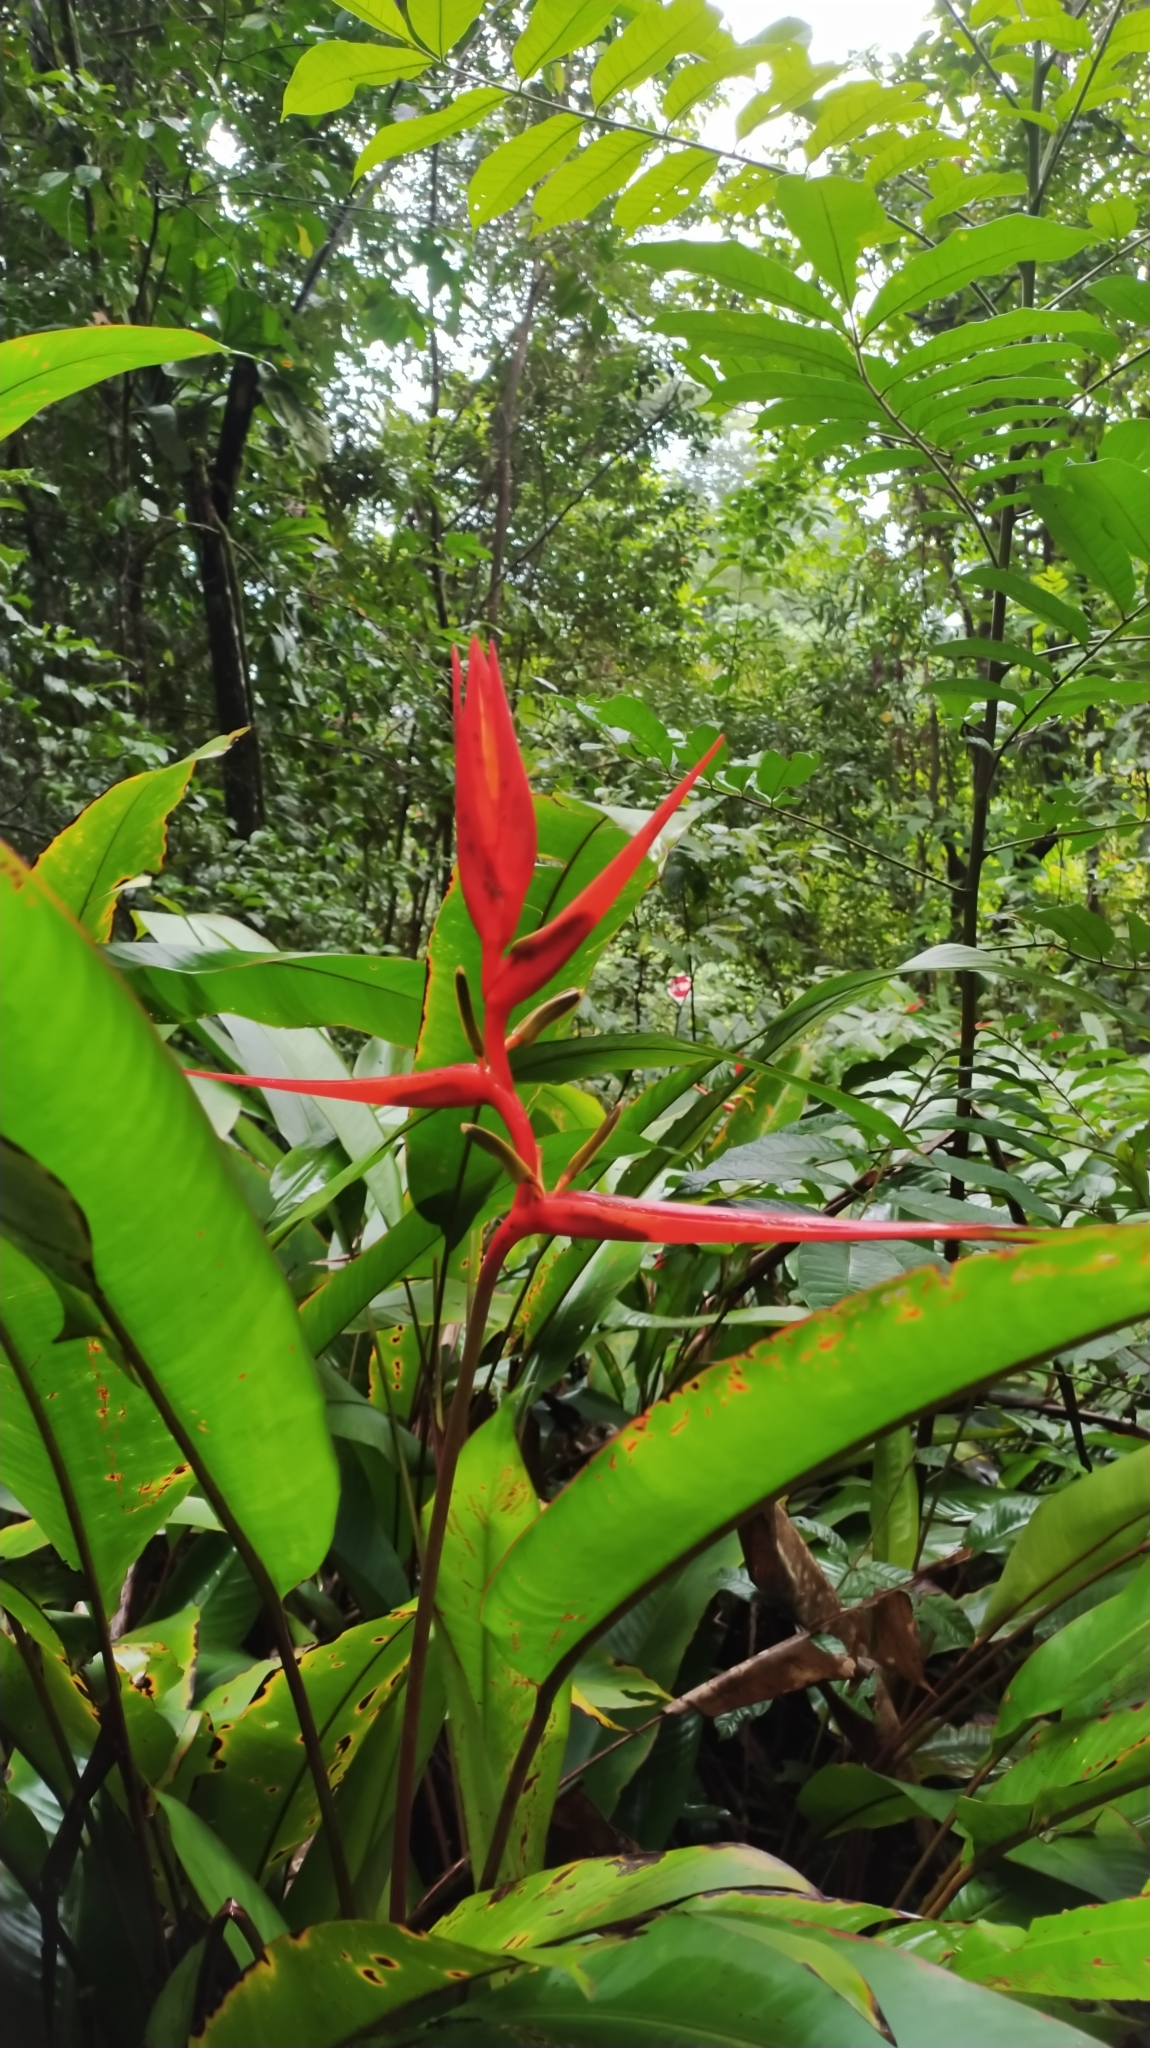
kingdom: Plantae
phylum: Tracheophyta
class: Liliopsida
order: Zingiberales
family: Heliconiaceae
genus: Heliconia
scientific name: Heliconia acuminata
